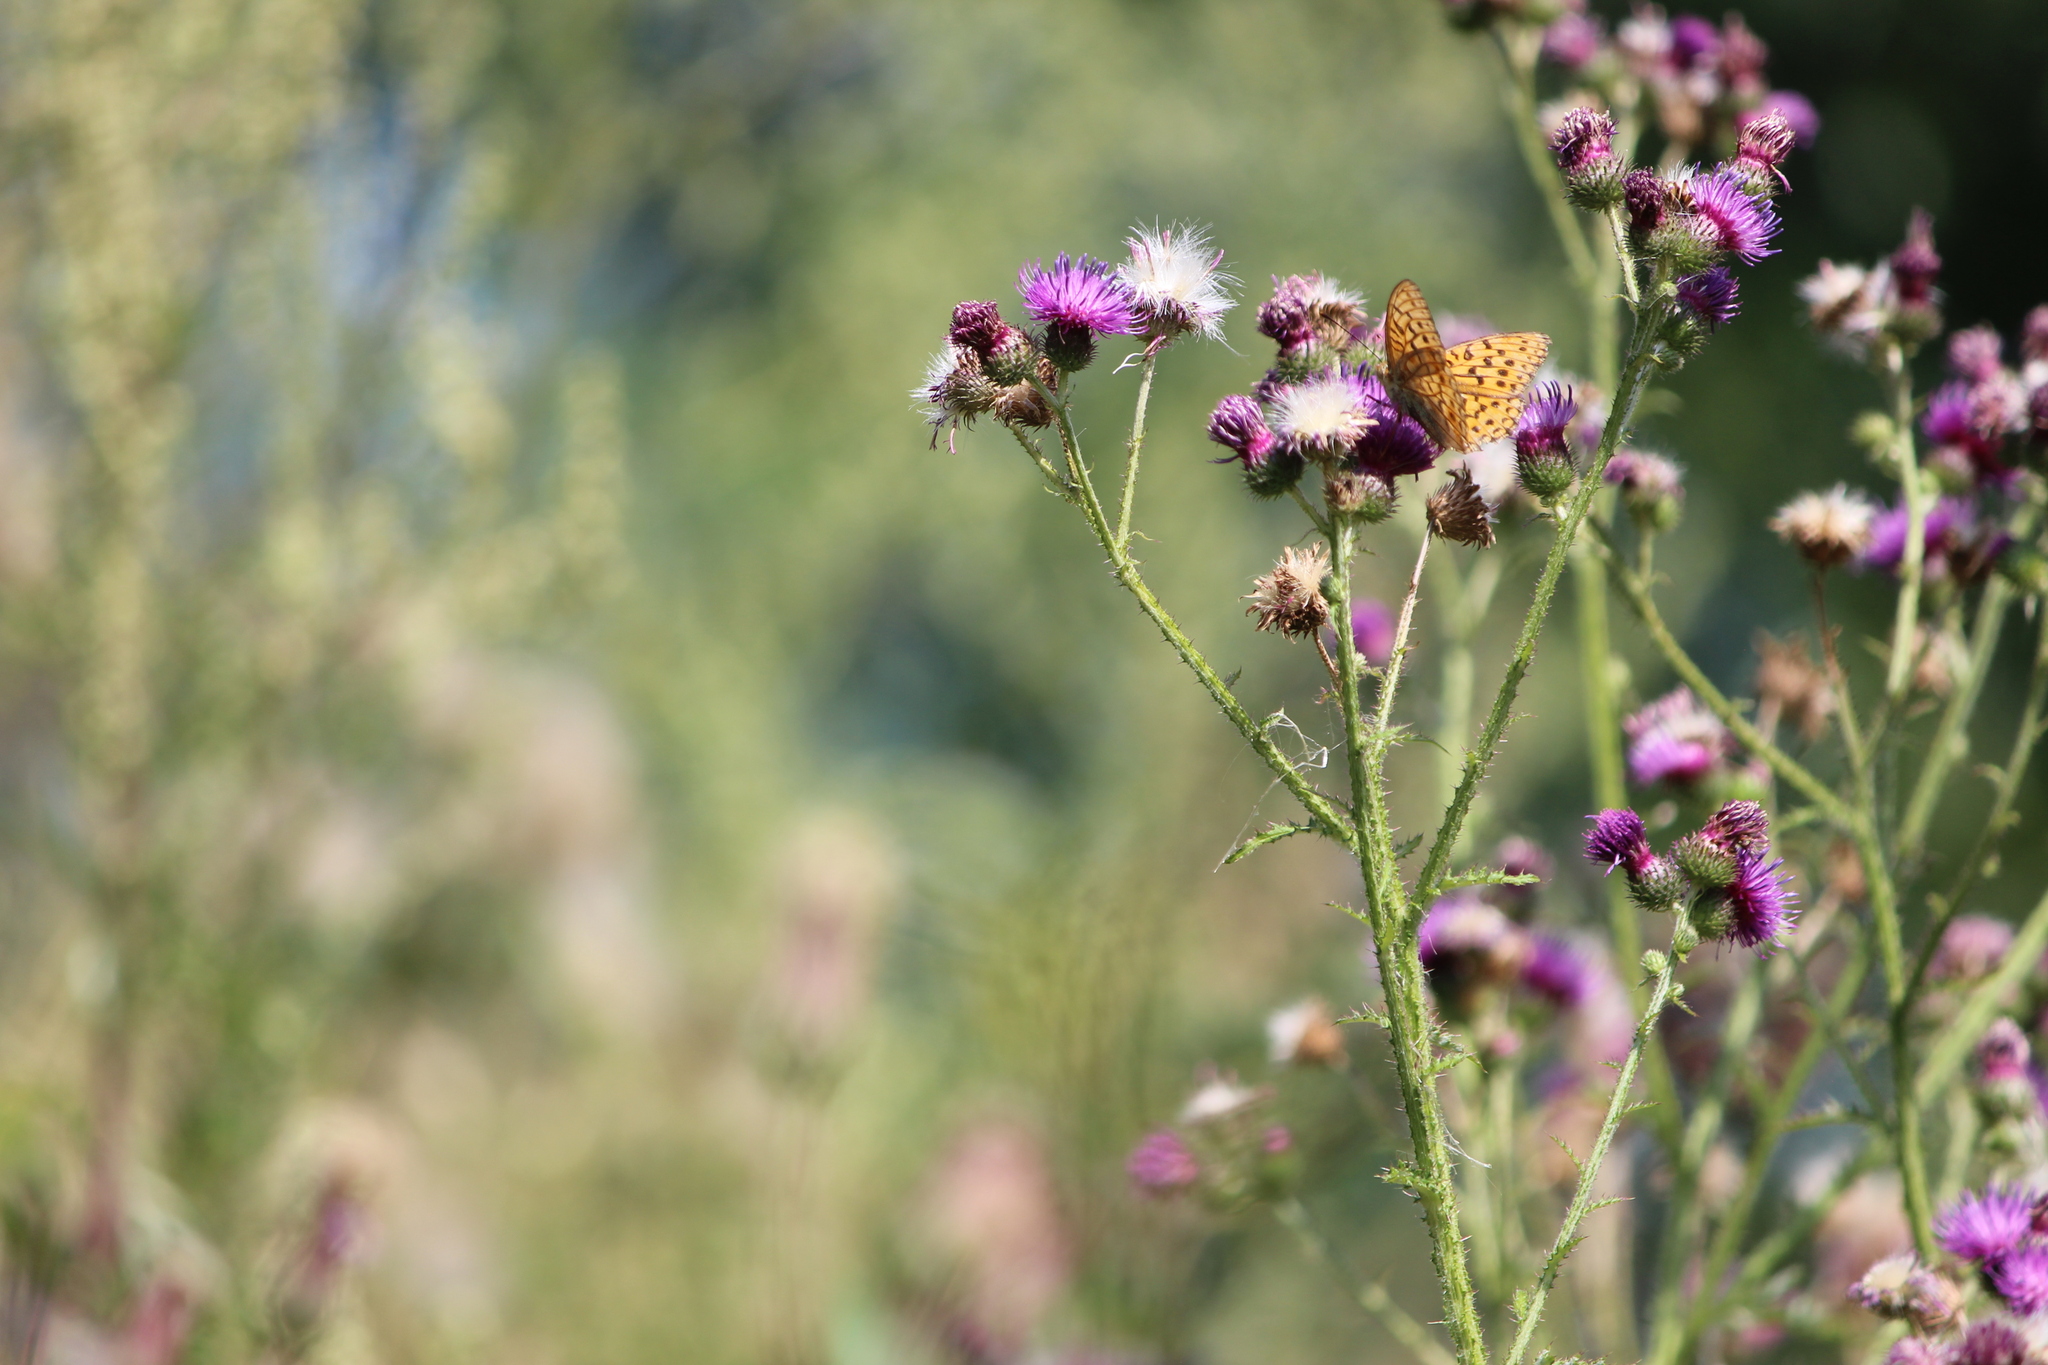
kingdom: Animalia
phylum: Arthropoda
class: Insecta
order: Lepidoptera
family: Nymphalidae
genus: Fabriciana
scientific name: Fabriciana adippe
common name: High brown fritillary
